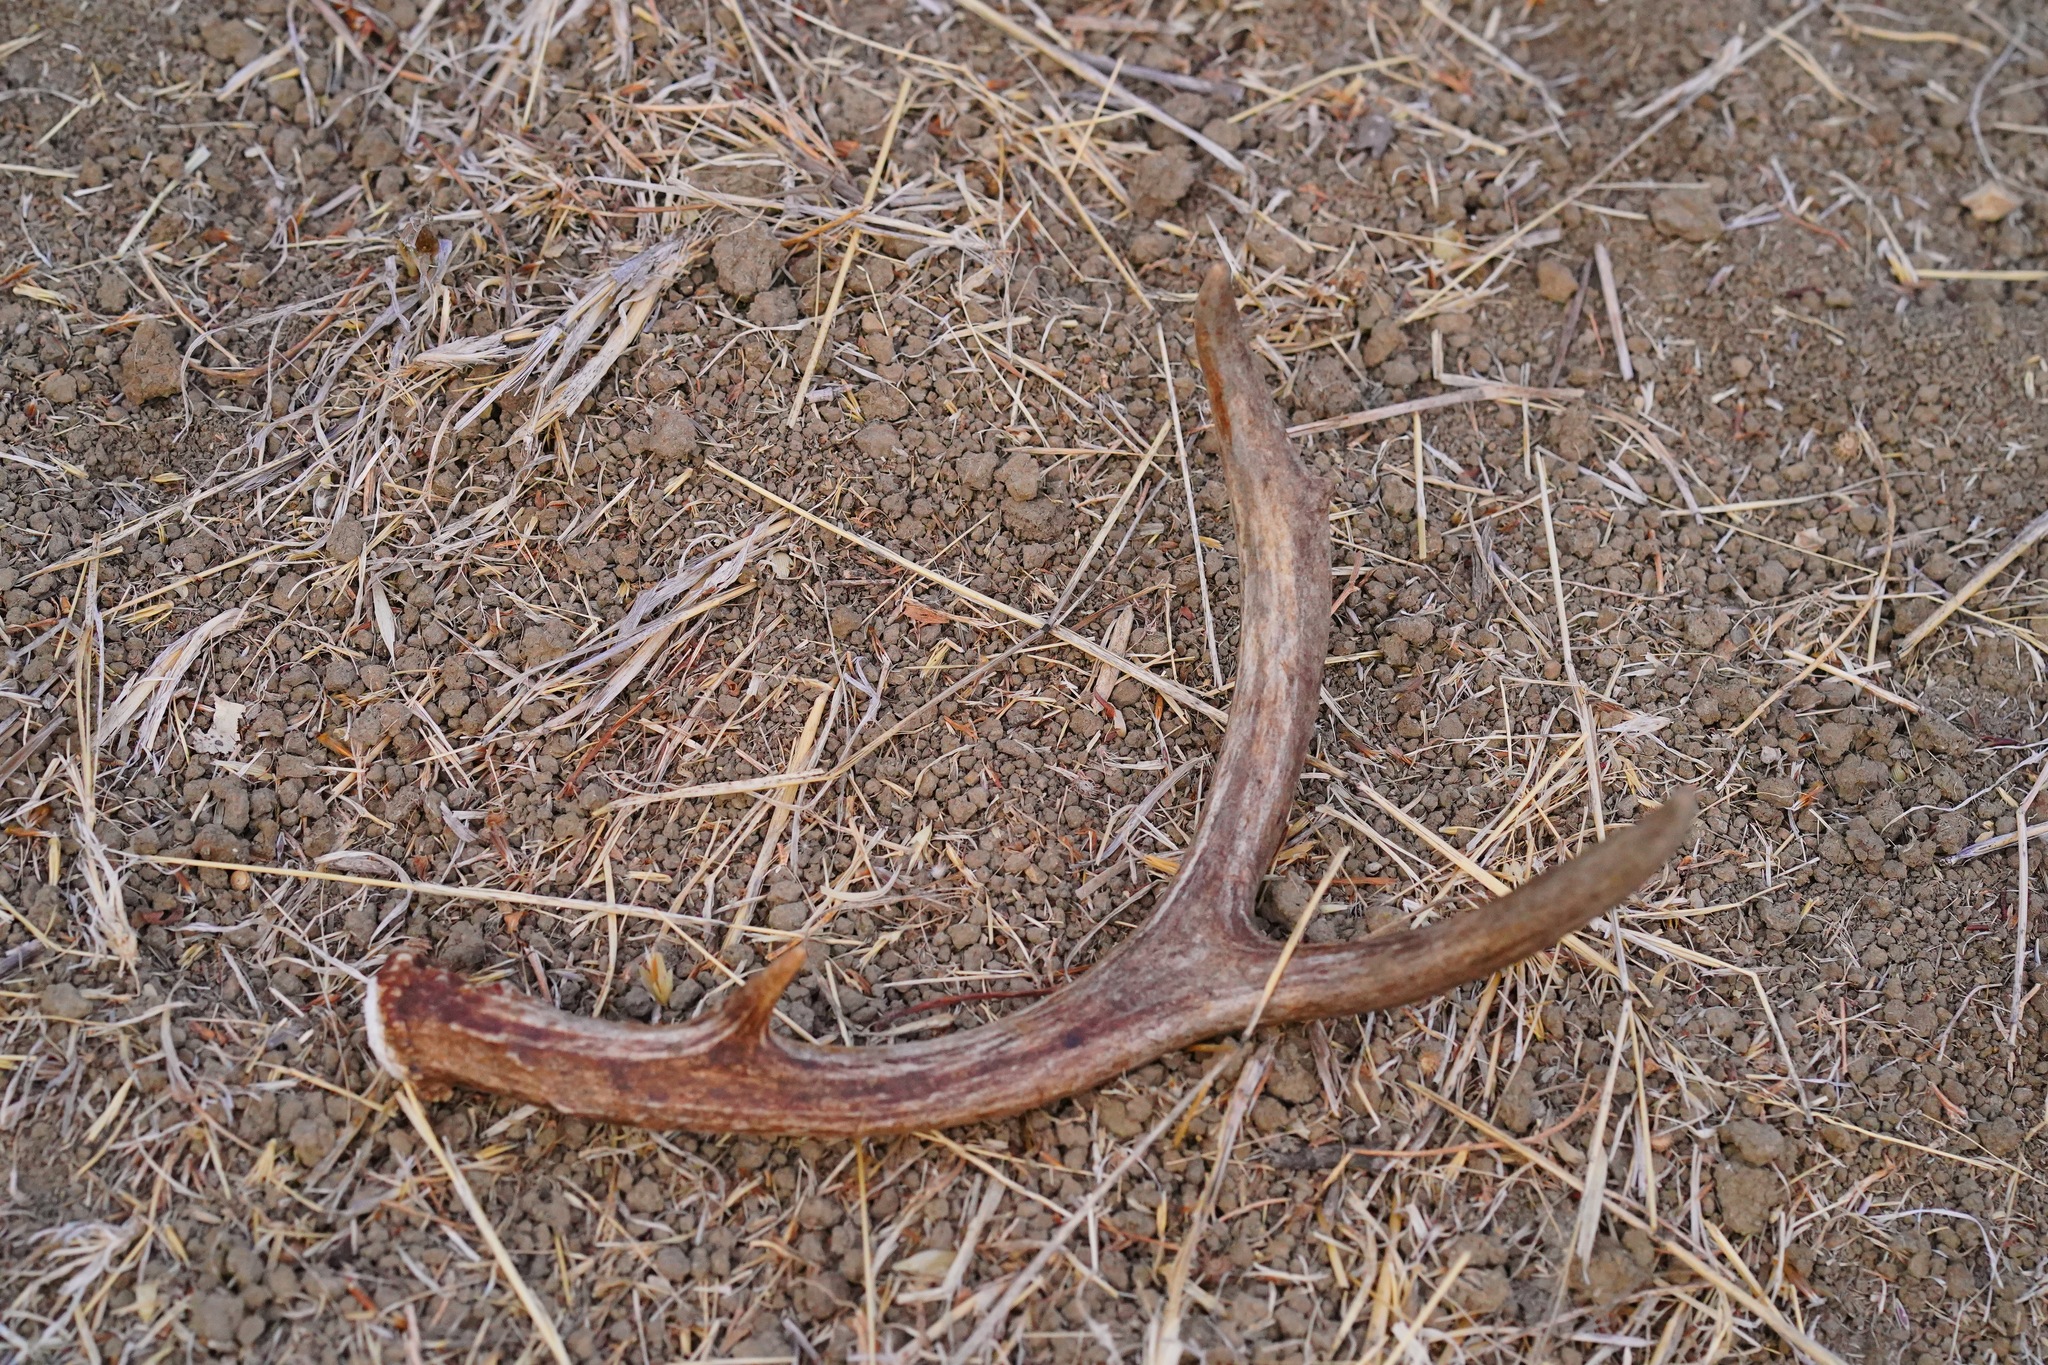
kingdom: Animalia
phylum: Chordata
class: Mammalia
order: Artiodactyla
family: Cervidae
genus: Odocoileus
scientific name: Odocoileus hemionus
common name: Mule deer
